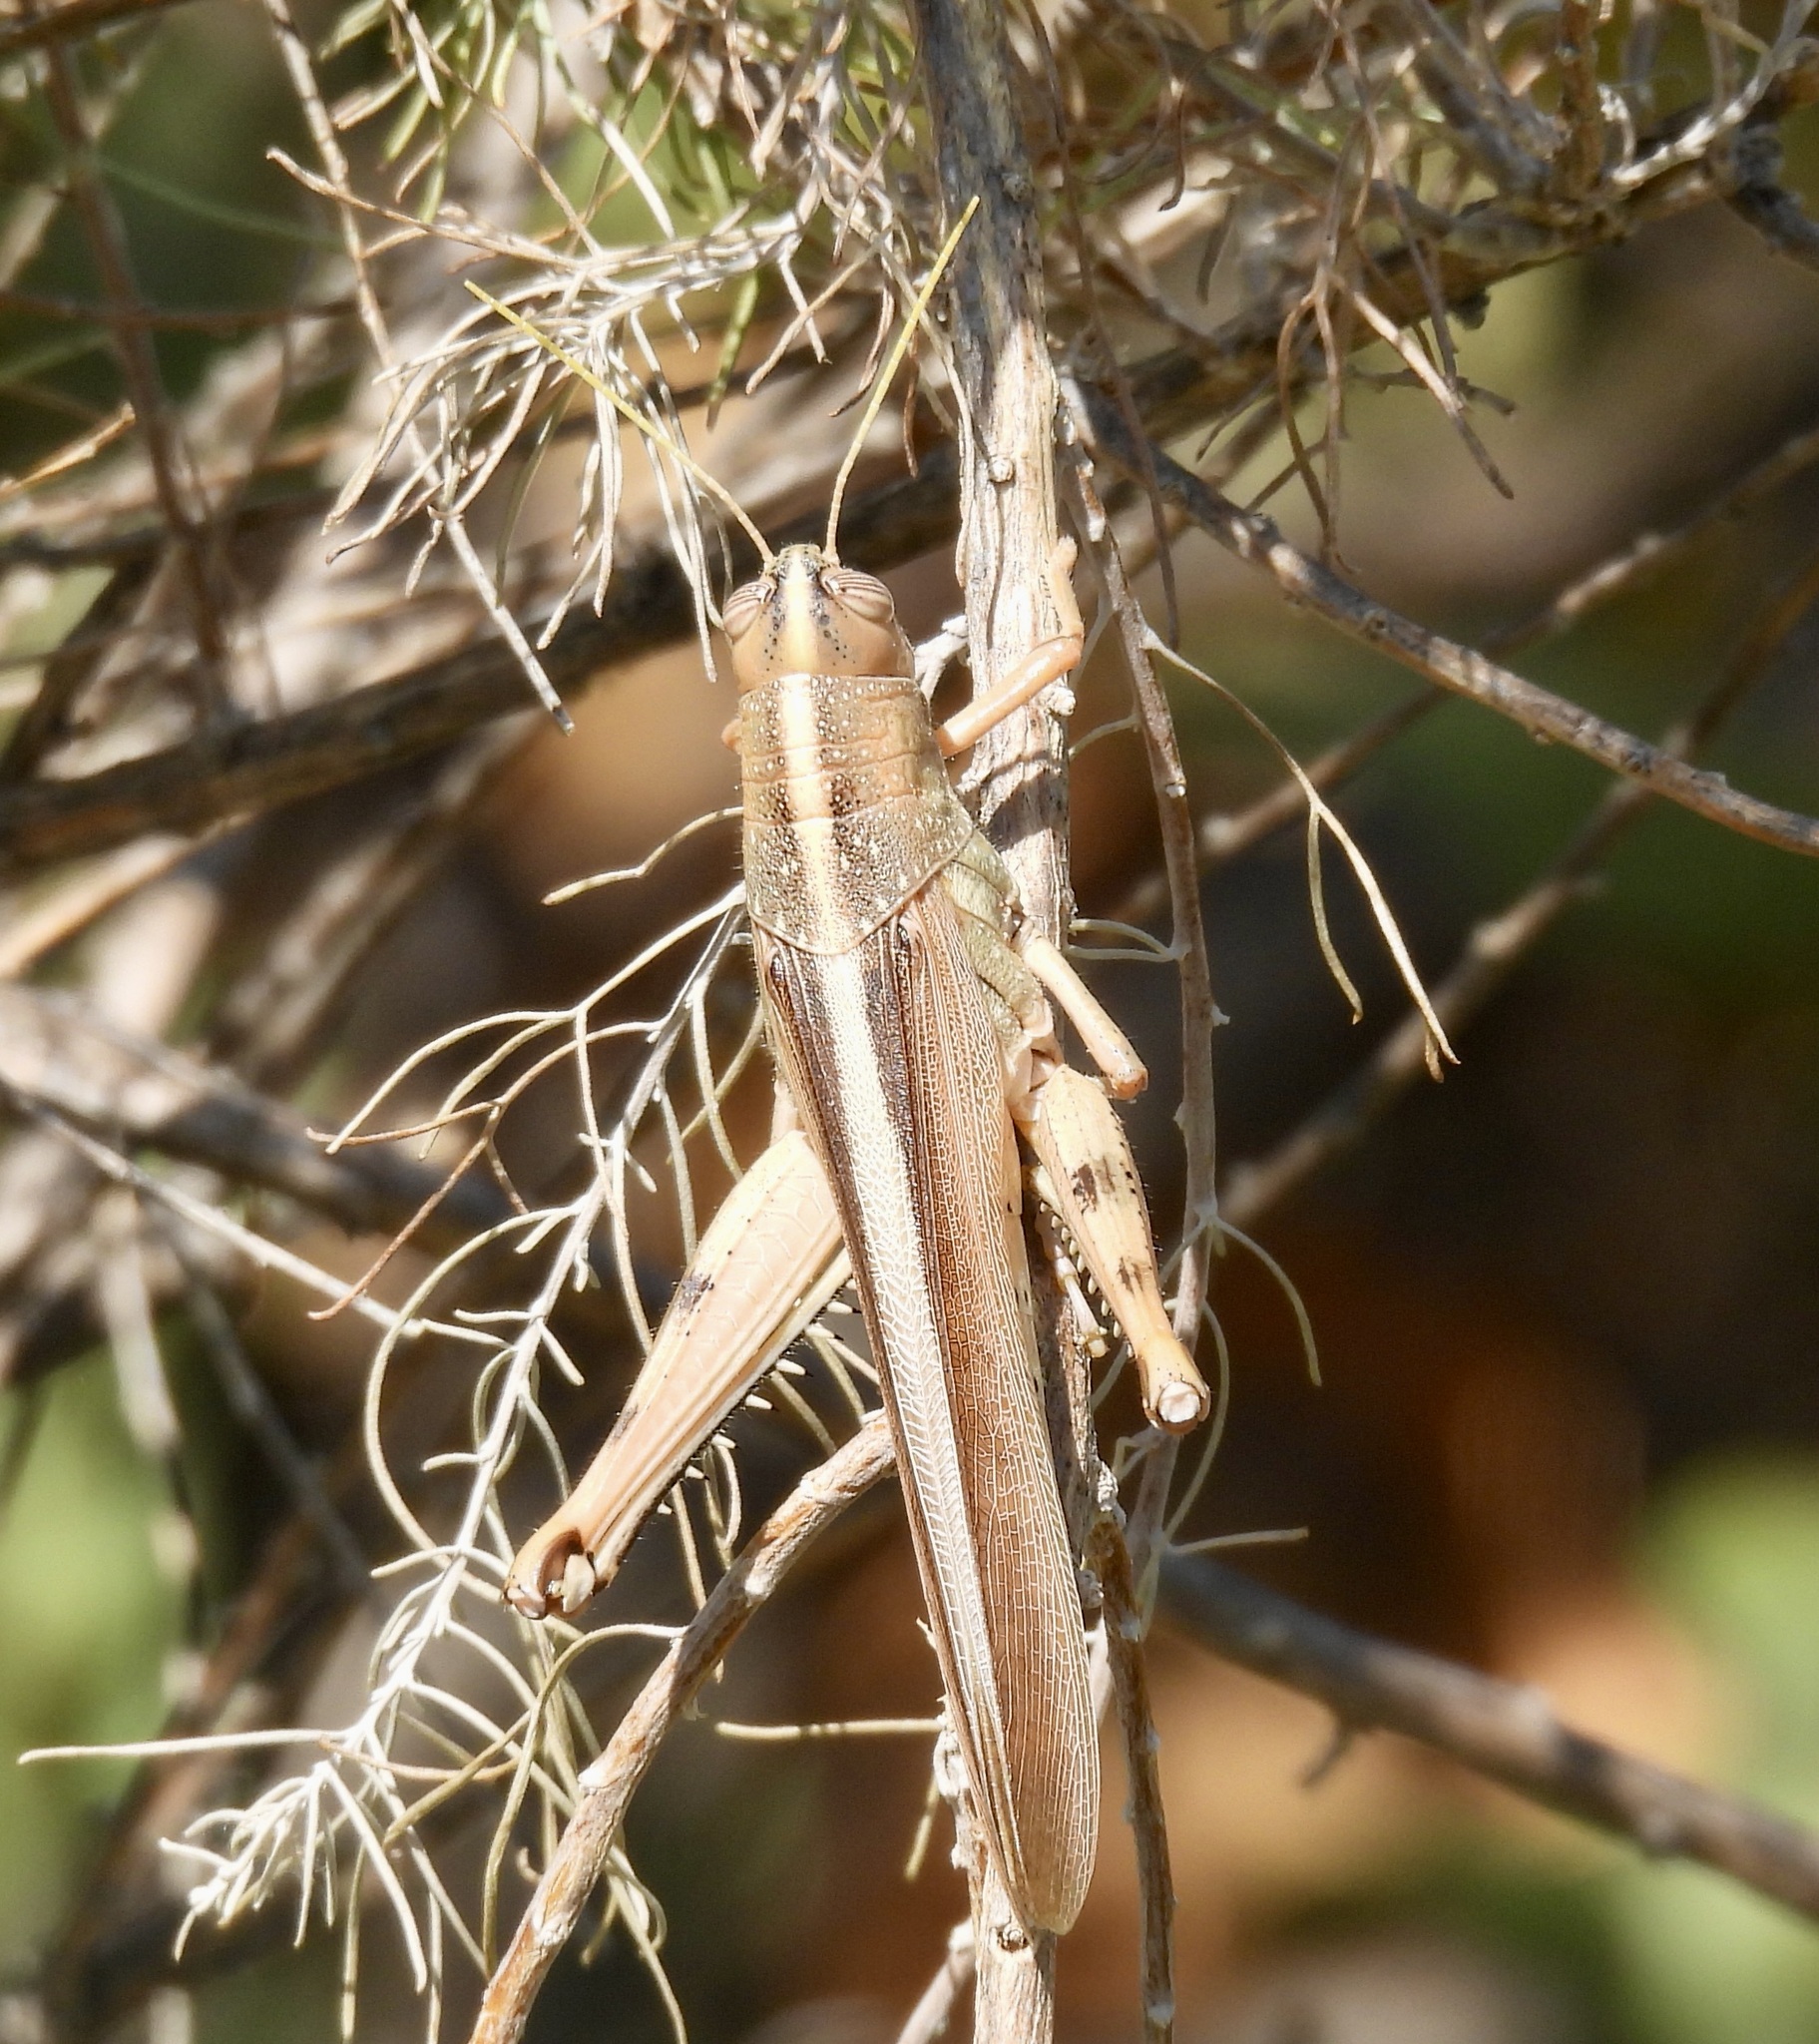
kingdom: Animalia
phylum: Arthropoda
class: Insecta
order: Orthoptera
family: Acrididae
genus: Schistocerca
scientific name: Schistocerca lineata
